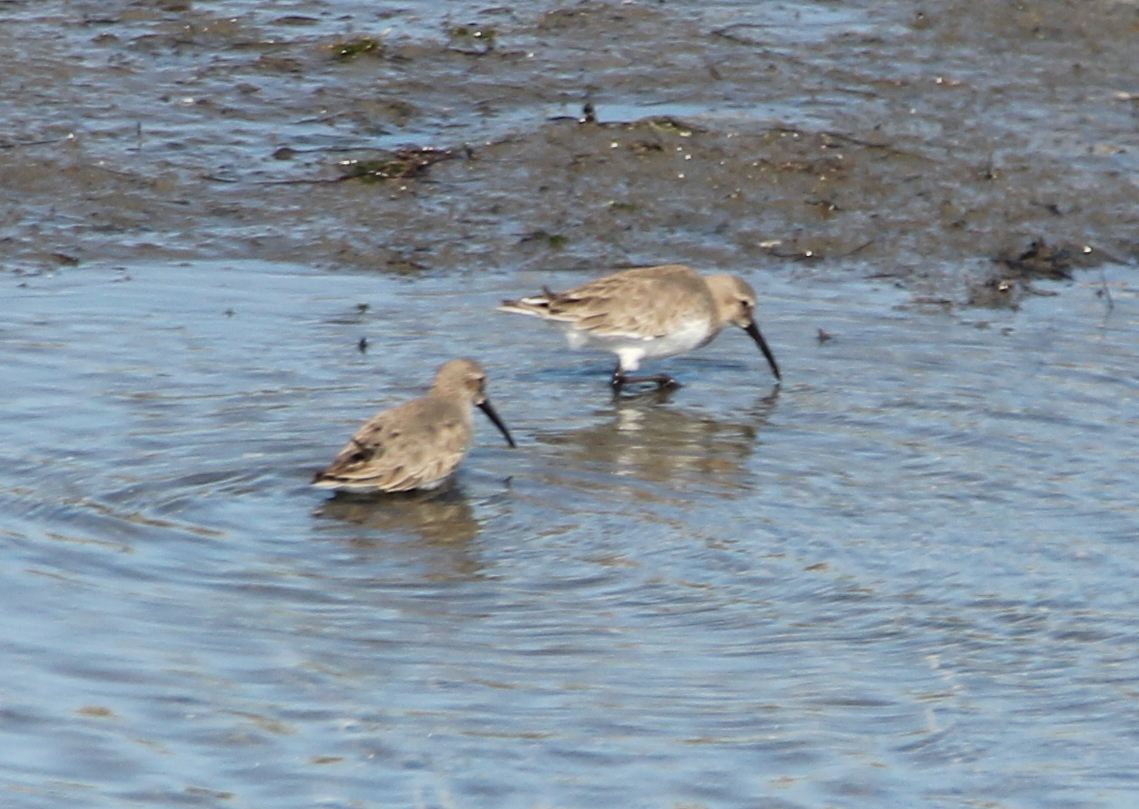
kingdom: Animalia
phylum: Chordata
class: Aves
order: Charadriiformes
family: Scolopacidae
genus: Calidris
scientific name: Calidris alpina
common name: Dunlin
